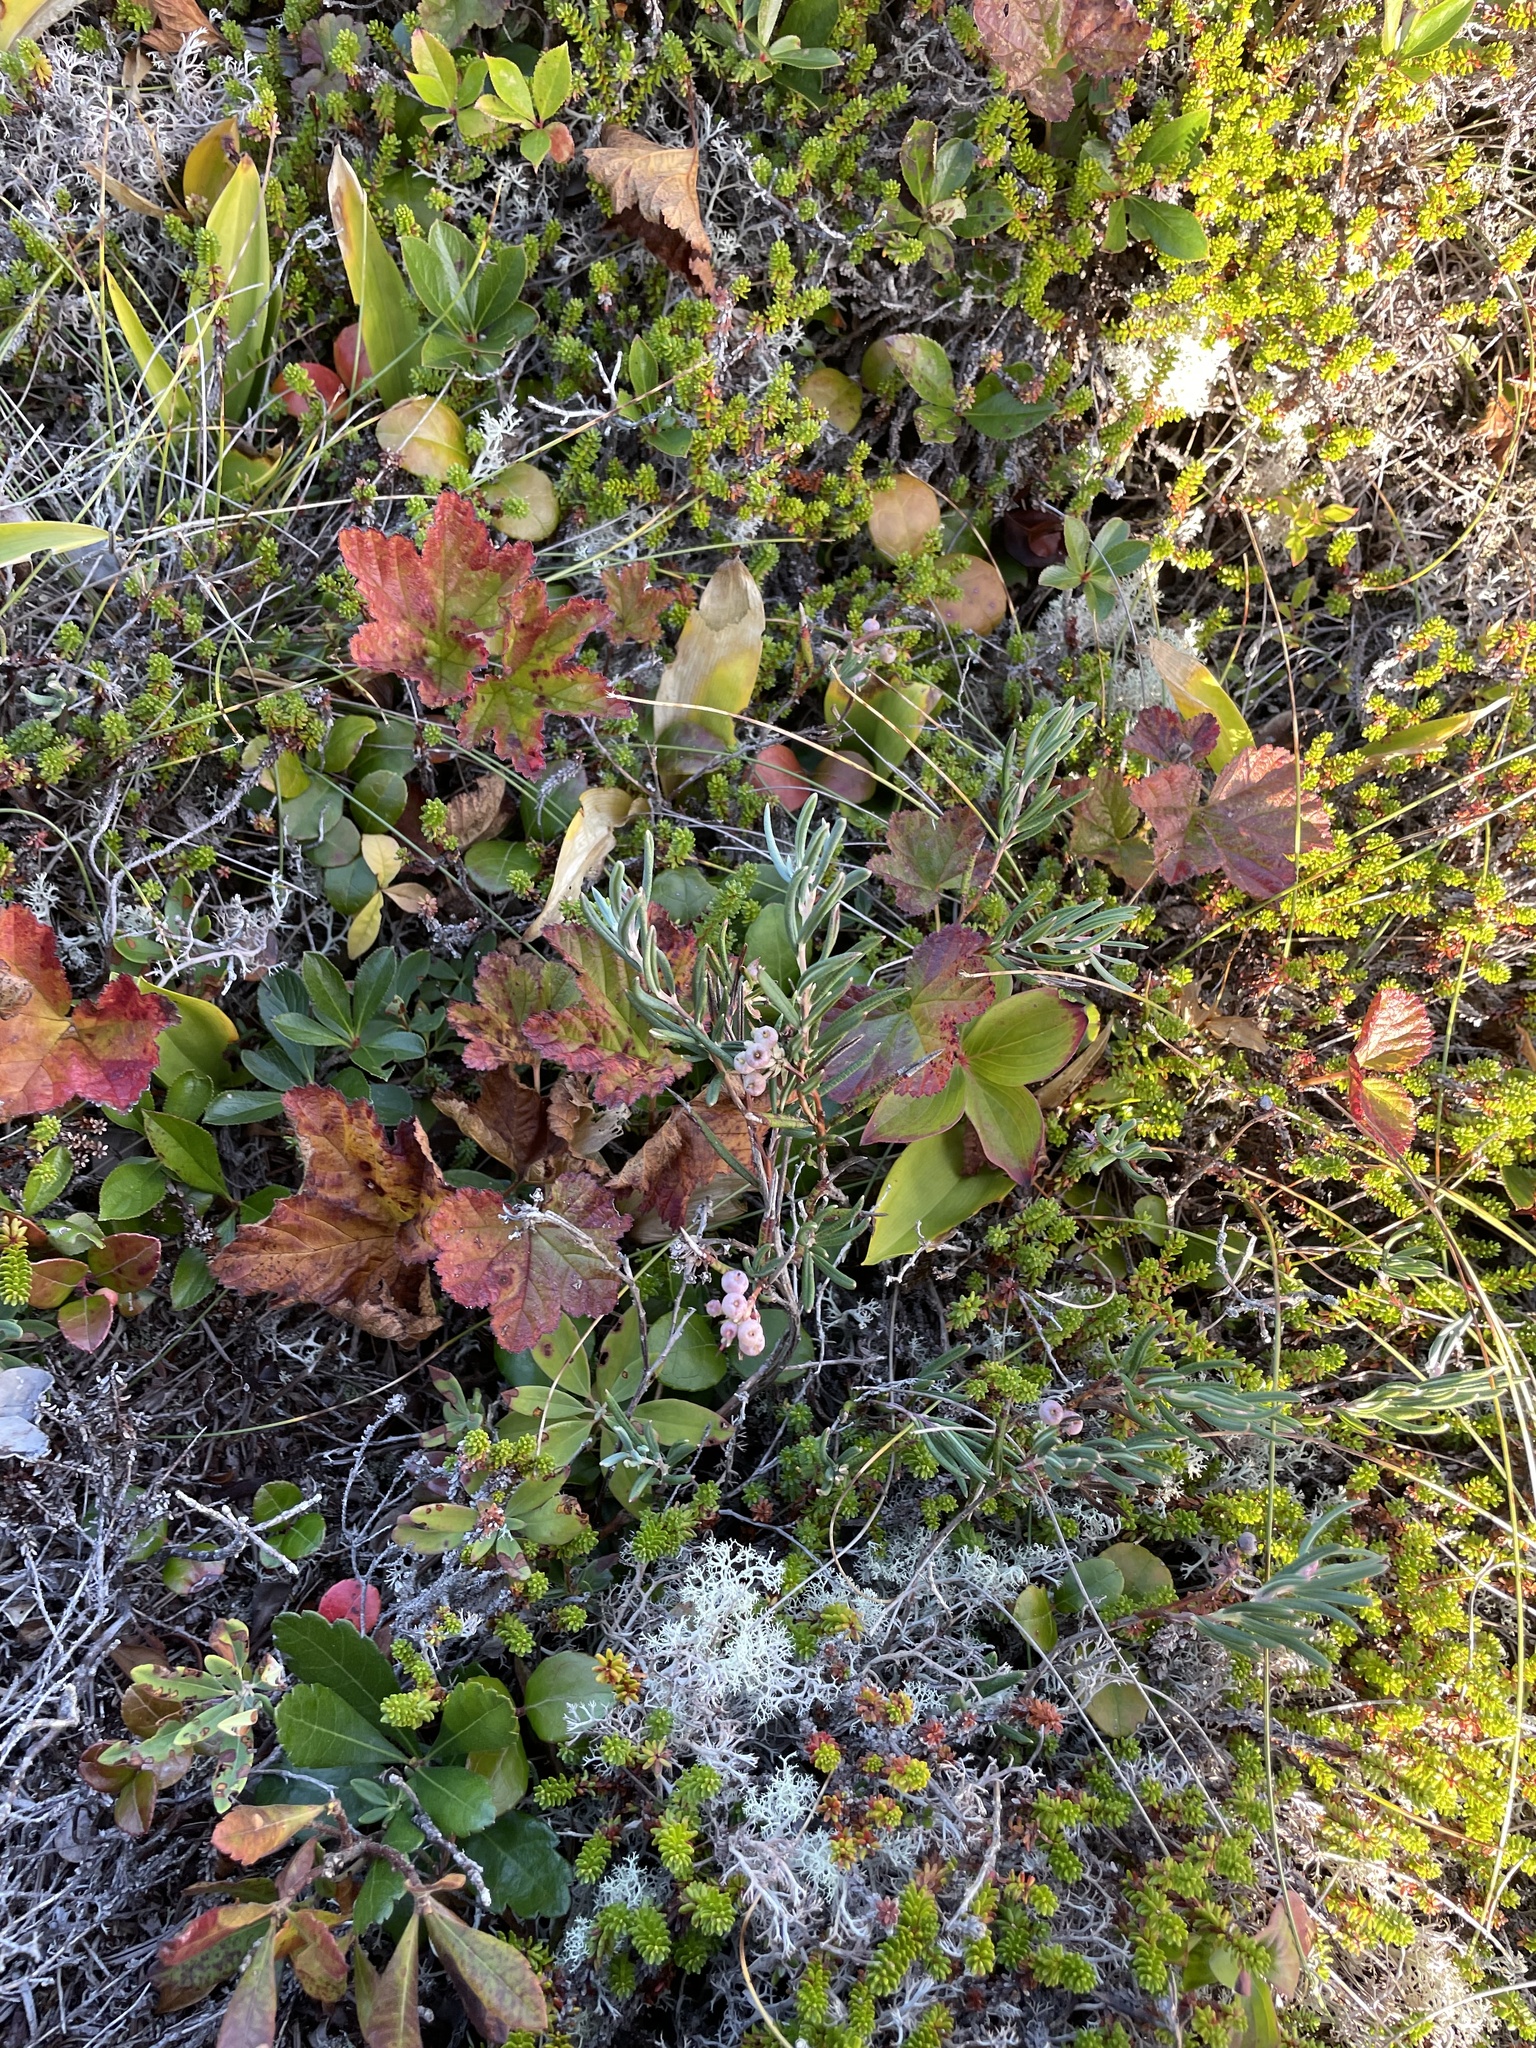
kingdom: Plantae
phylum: Tracheophyta
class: Magnoliopsida
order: Ericales
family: Ericaceae
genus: Andromeda
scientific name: Andromeda polifolia
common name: Bog-rosemary
